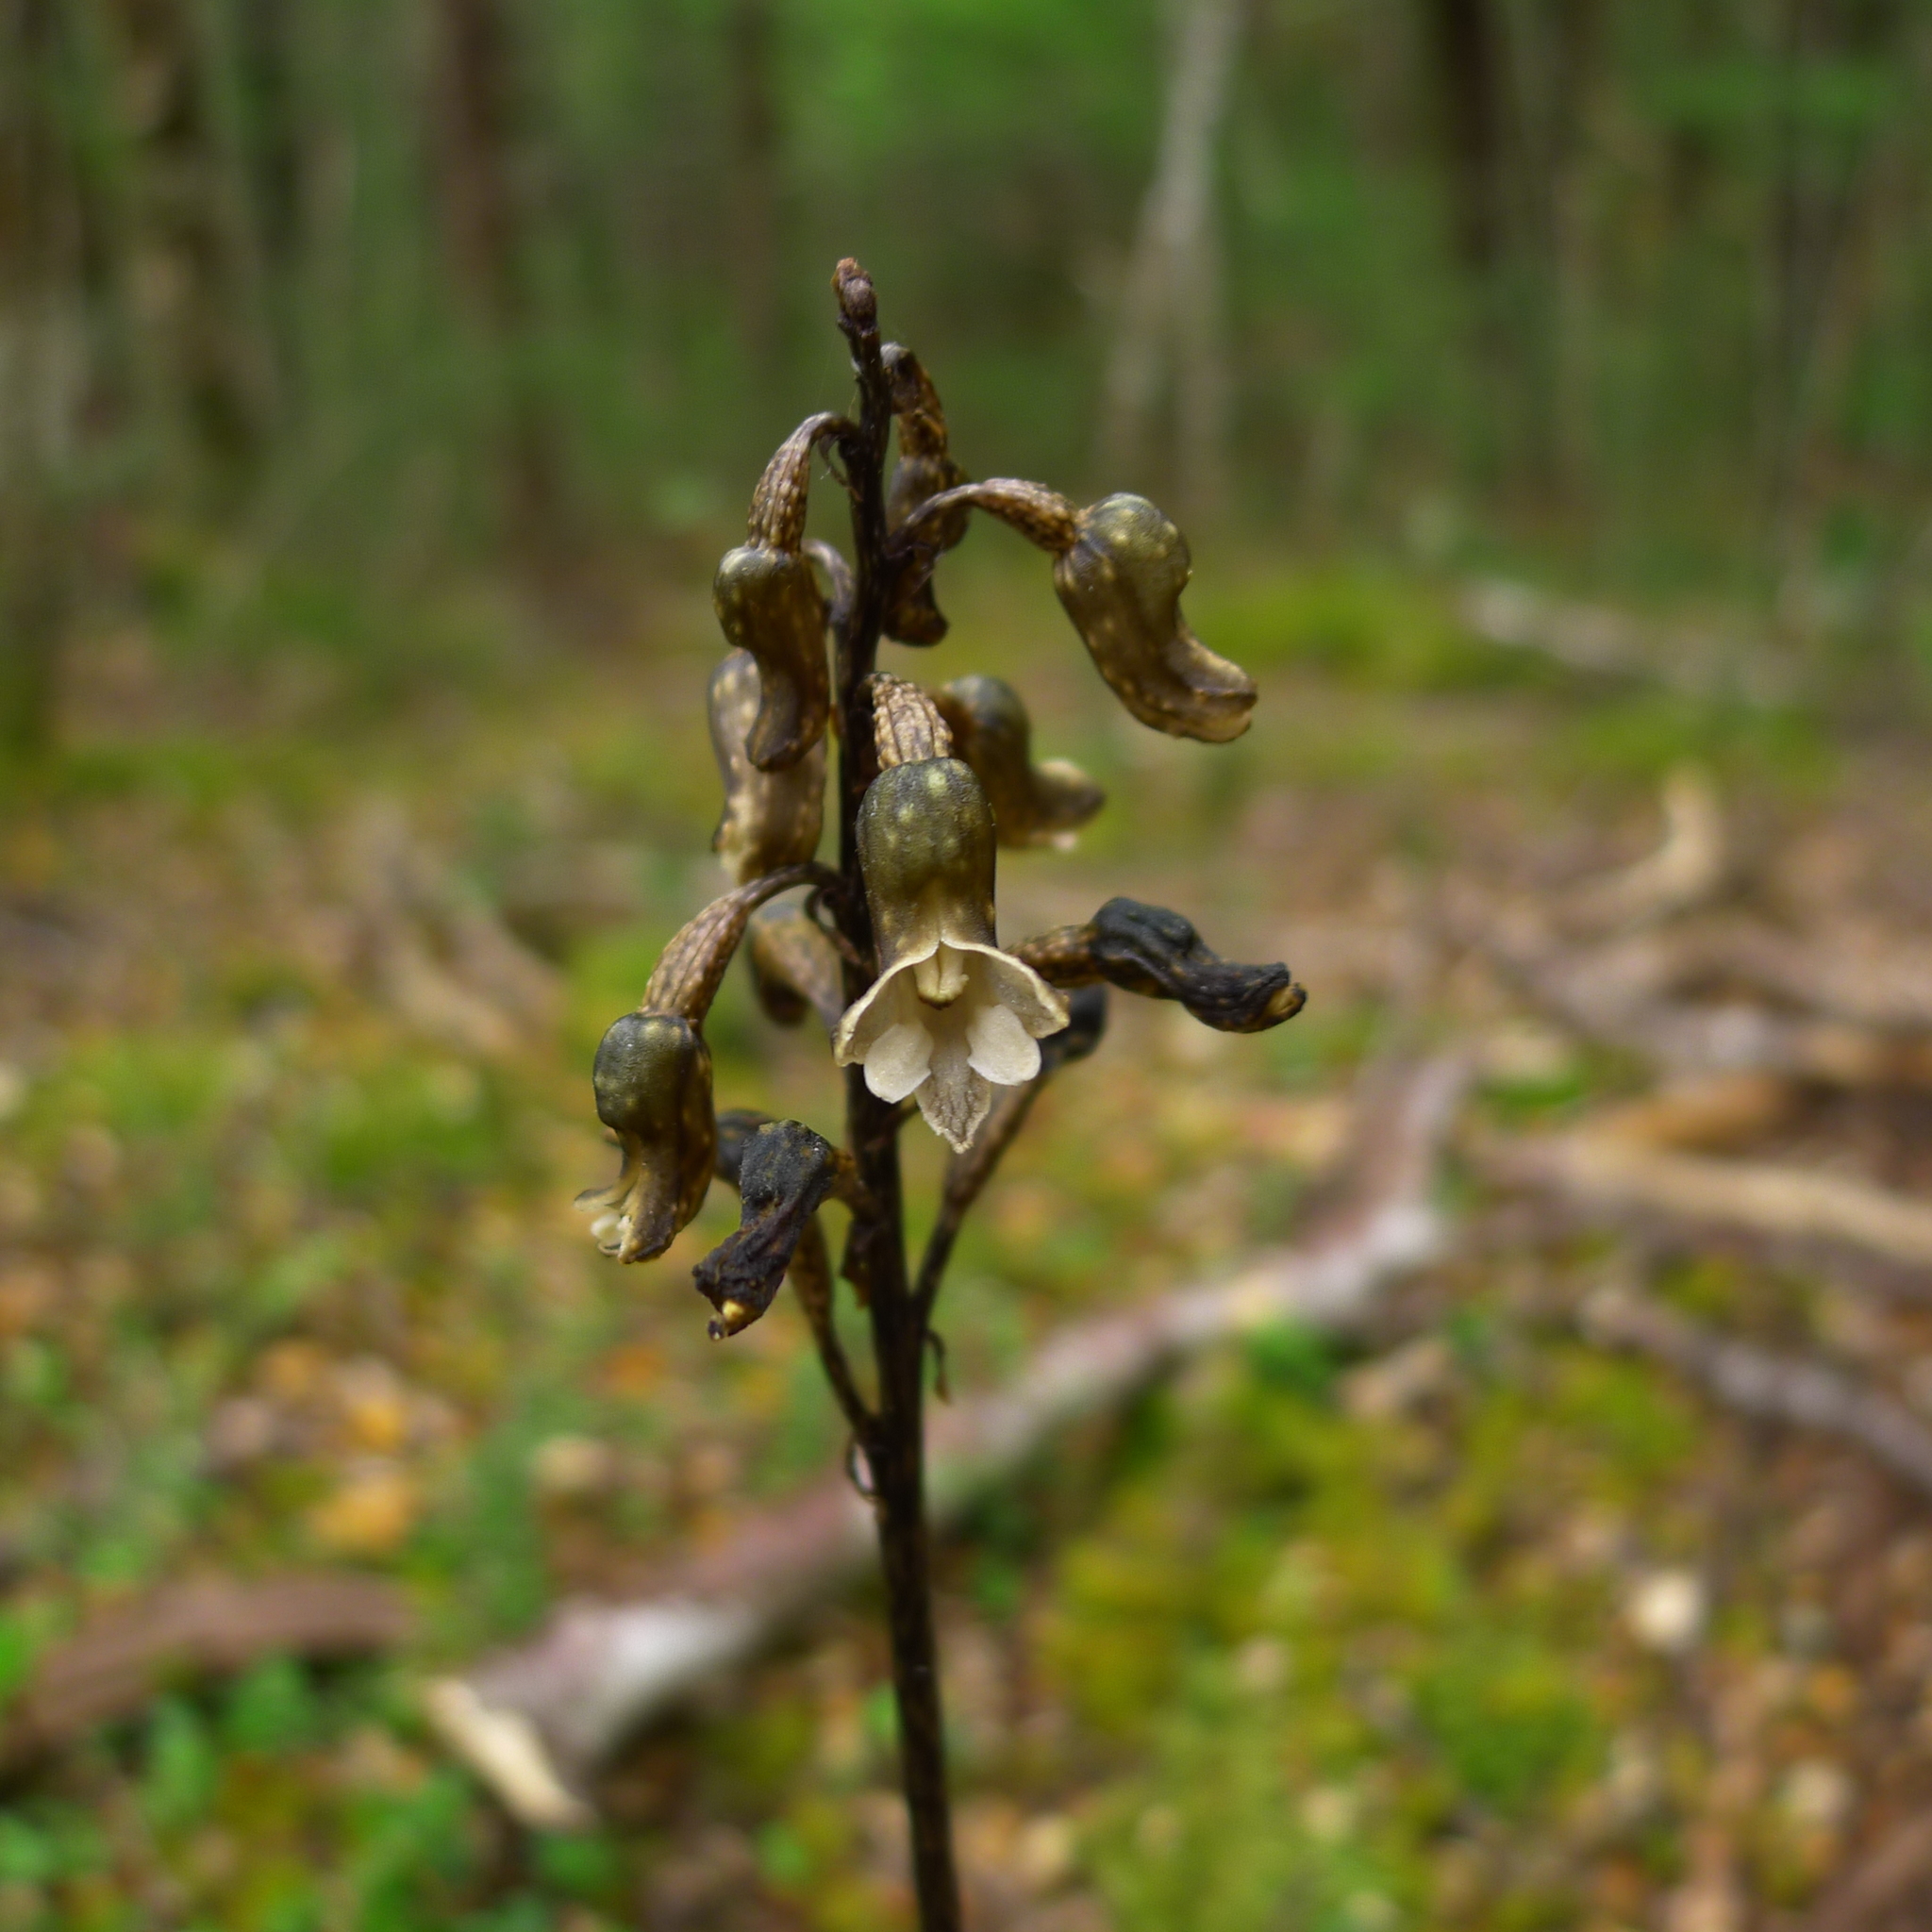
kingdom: Plantae
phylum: Tracheophyta
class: Liliopsida
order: Asparagales
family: Orchidaceae
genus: Gastrodia
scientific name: Gastrodia cunninghamii
